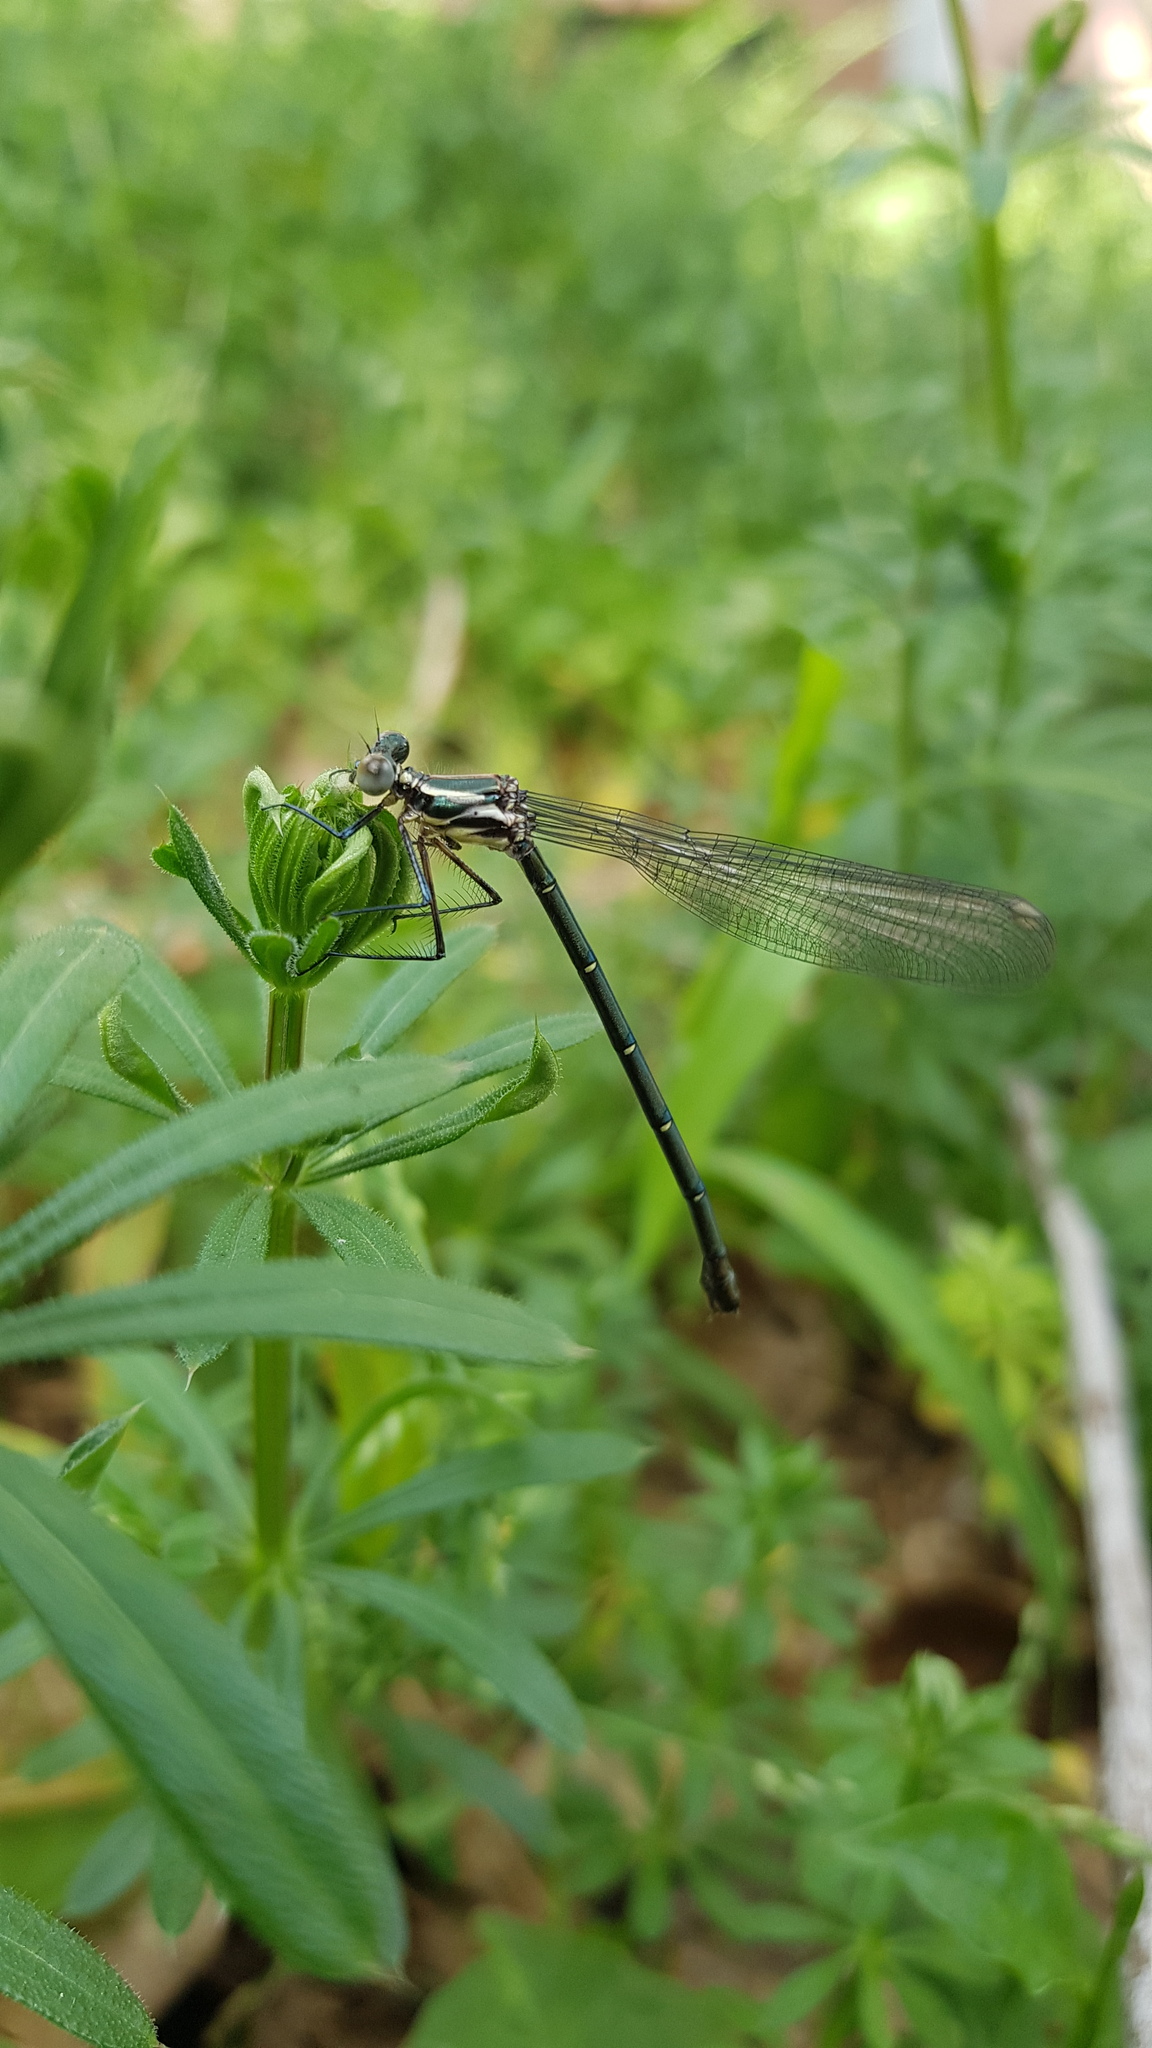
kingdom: Animalia
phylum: Arthropoda
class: Insecta
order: Odonata
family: Argiolestidae
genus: Austroargiolestes
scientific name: Austroargiolestes icteromelas
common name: Common flatwing
